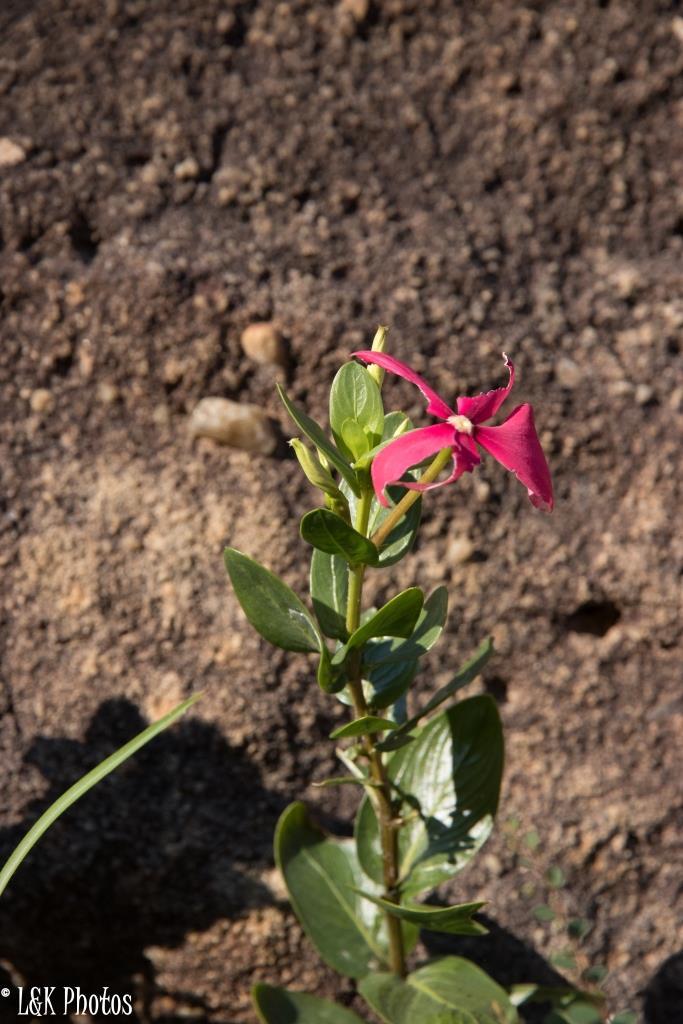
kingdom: Plantae
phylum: Tracheophyta
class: Magnoliopsida
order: Gentianales
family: Apocynaceae
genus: Catharanthus
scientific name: Catharanthus ovalis
